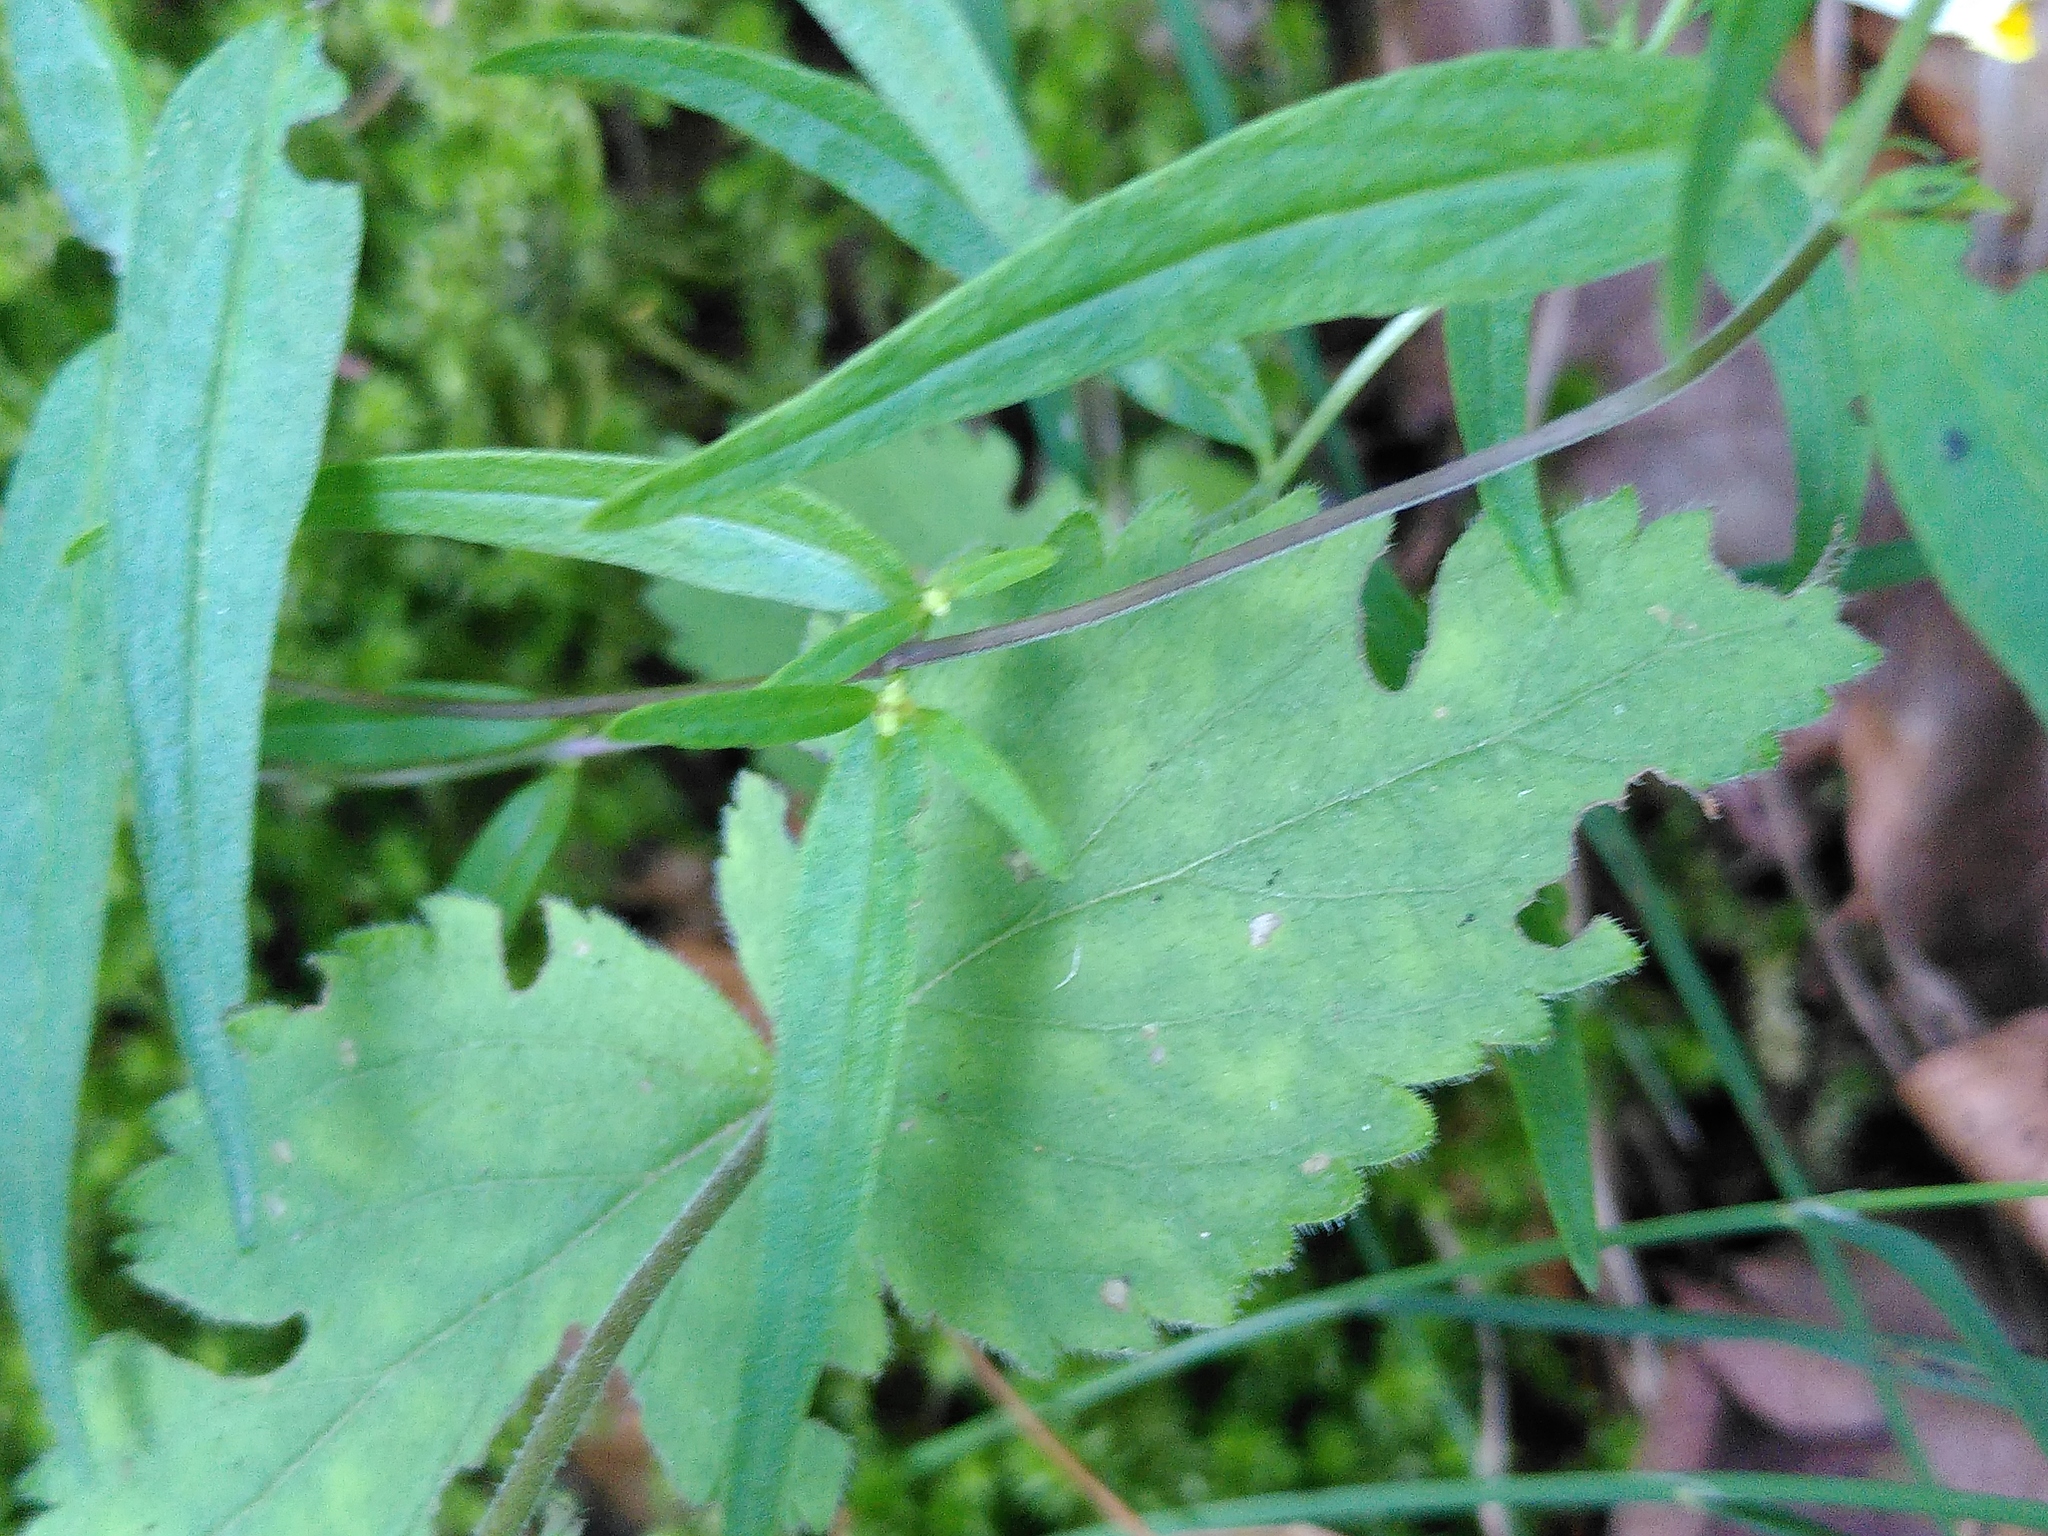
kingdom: Plantae
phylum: Tracheophyta
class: Magnoliopsida
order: Lamiales
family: Plantaginaceae
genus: Veronica
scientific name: Veronica urticifolia
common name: Nettle-leaf speedwell
